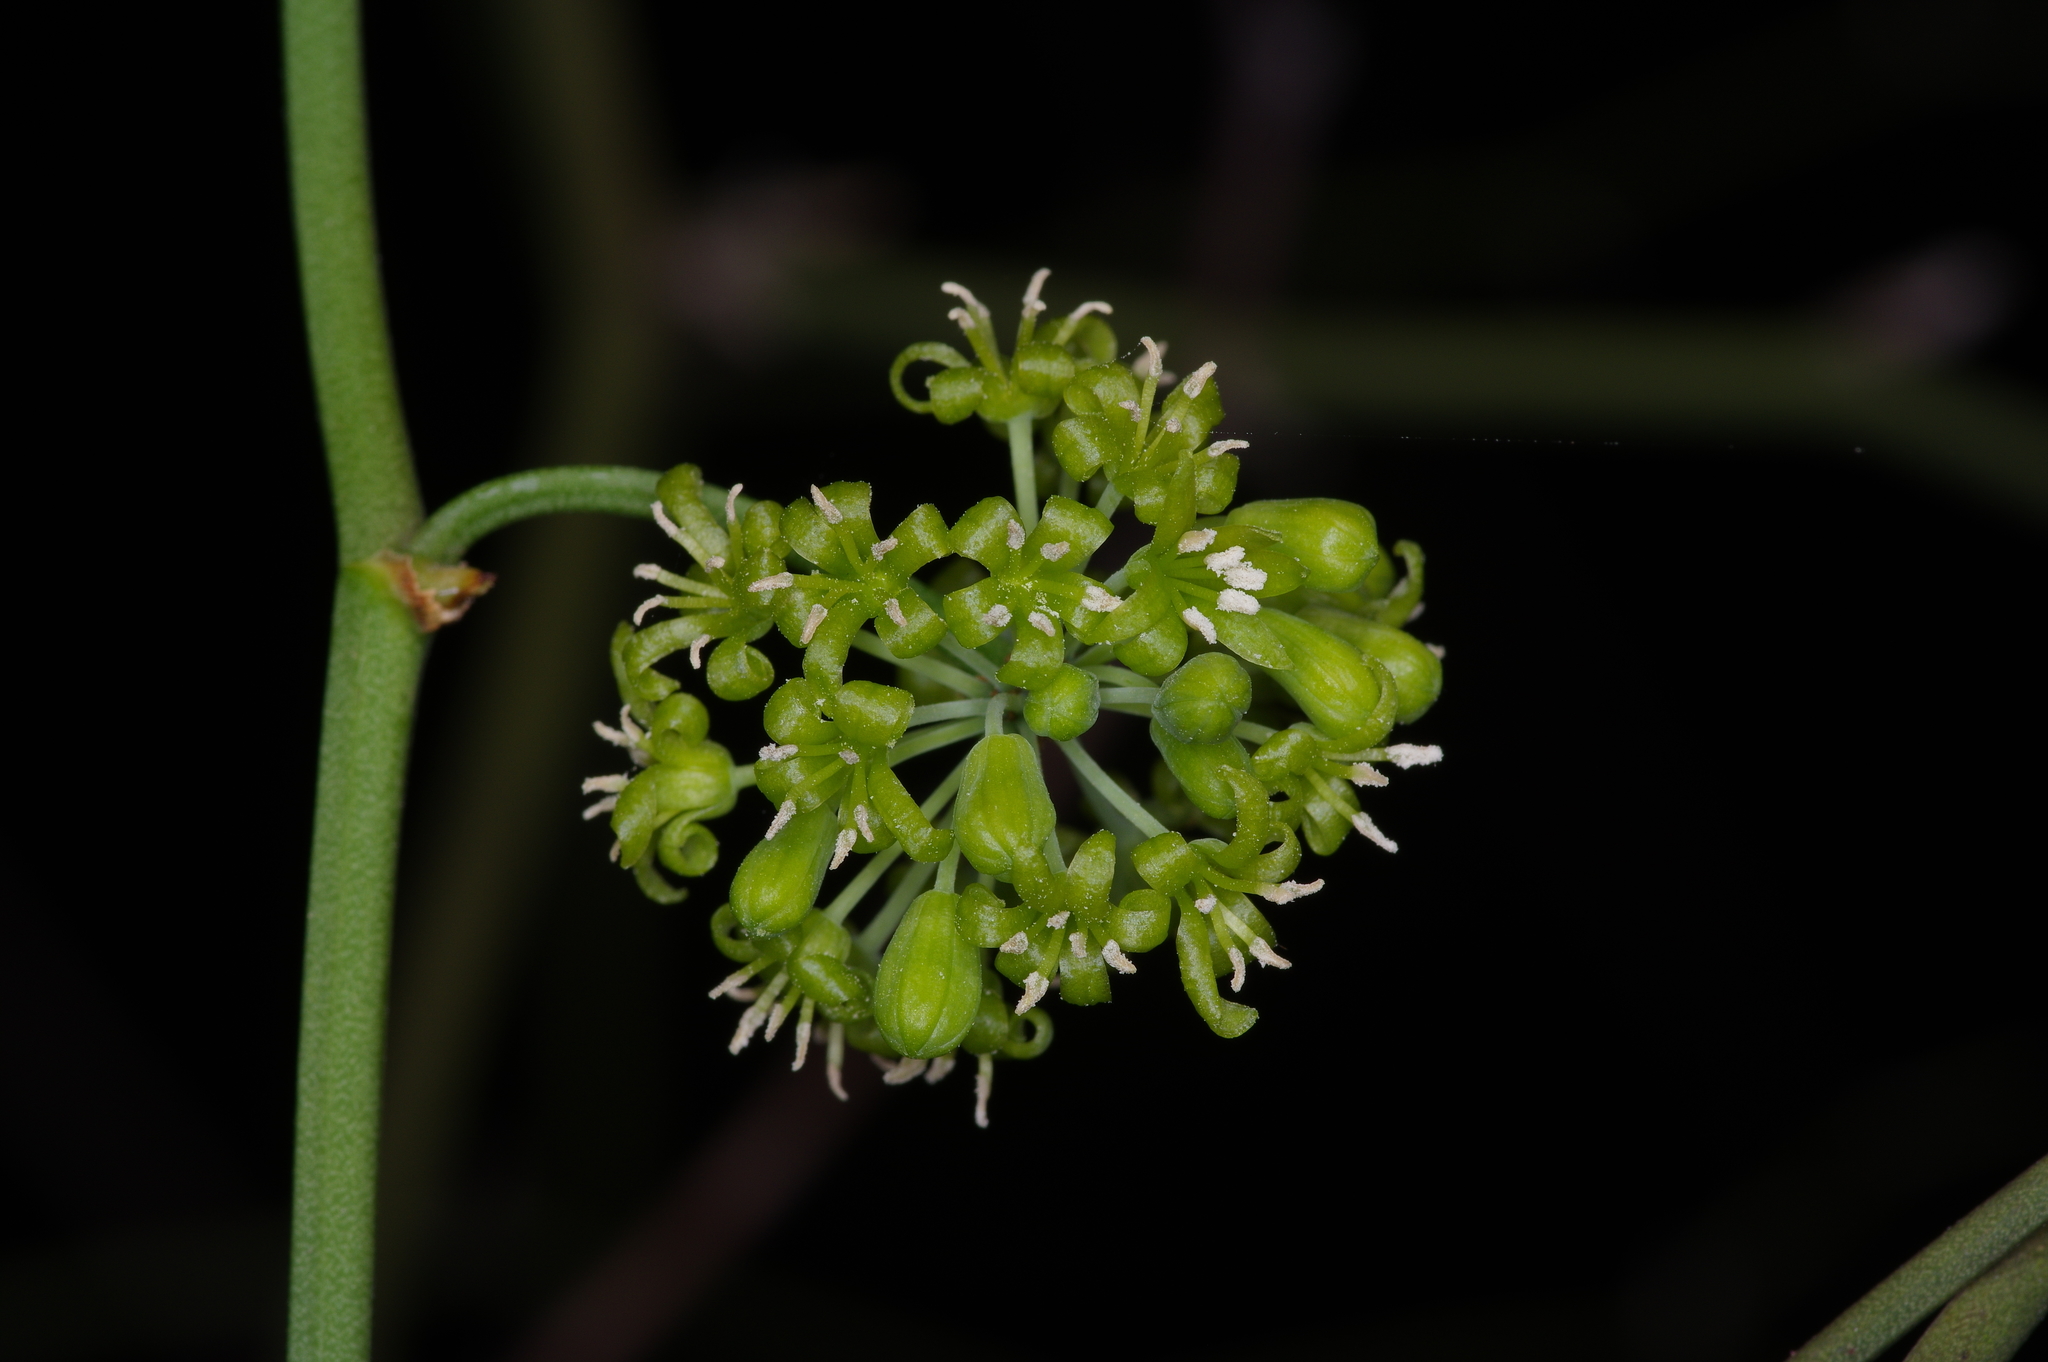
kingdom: Plantae
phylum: Tracheophyta
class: Liliopsida
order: Liliales
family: Smilacaceae
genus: Smilax
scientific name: Smilax rotundifolia
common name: Bullbriar
